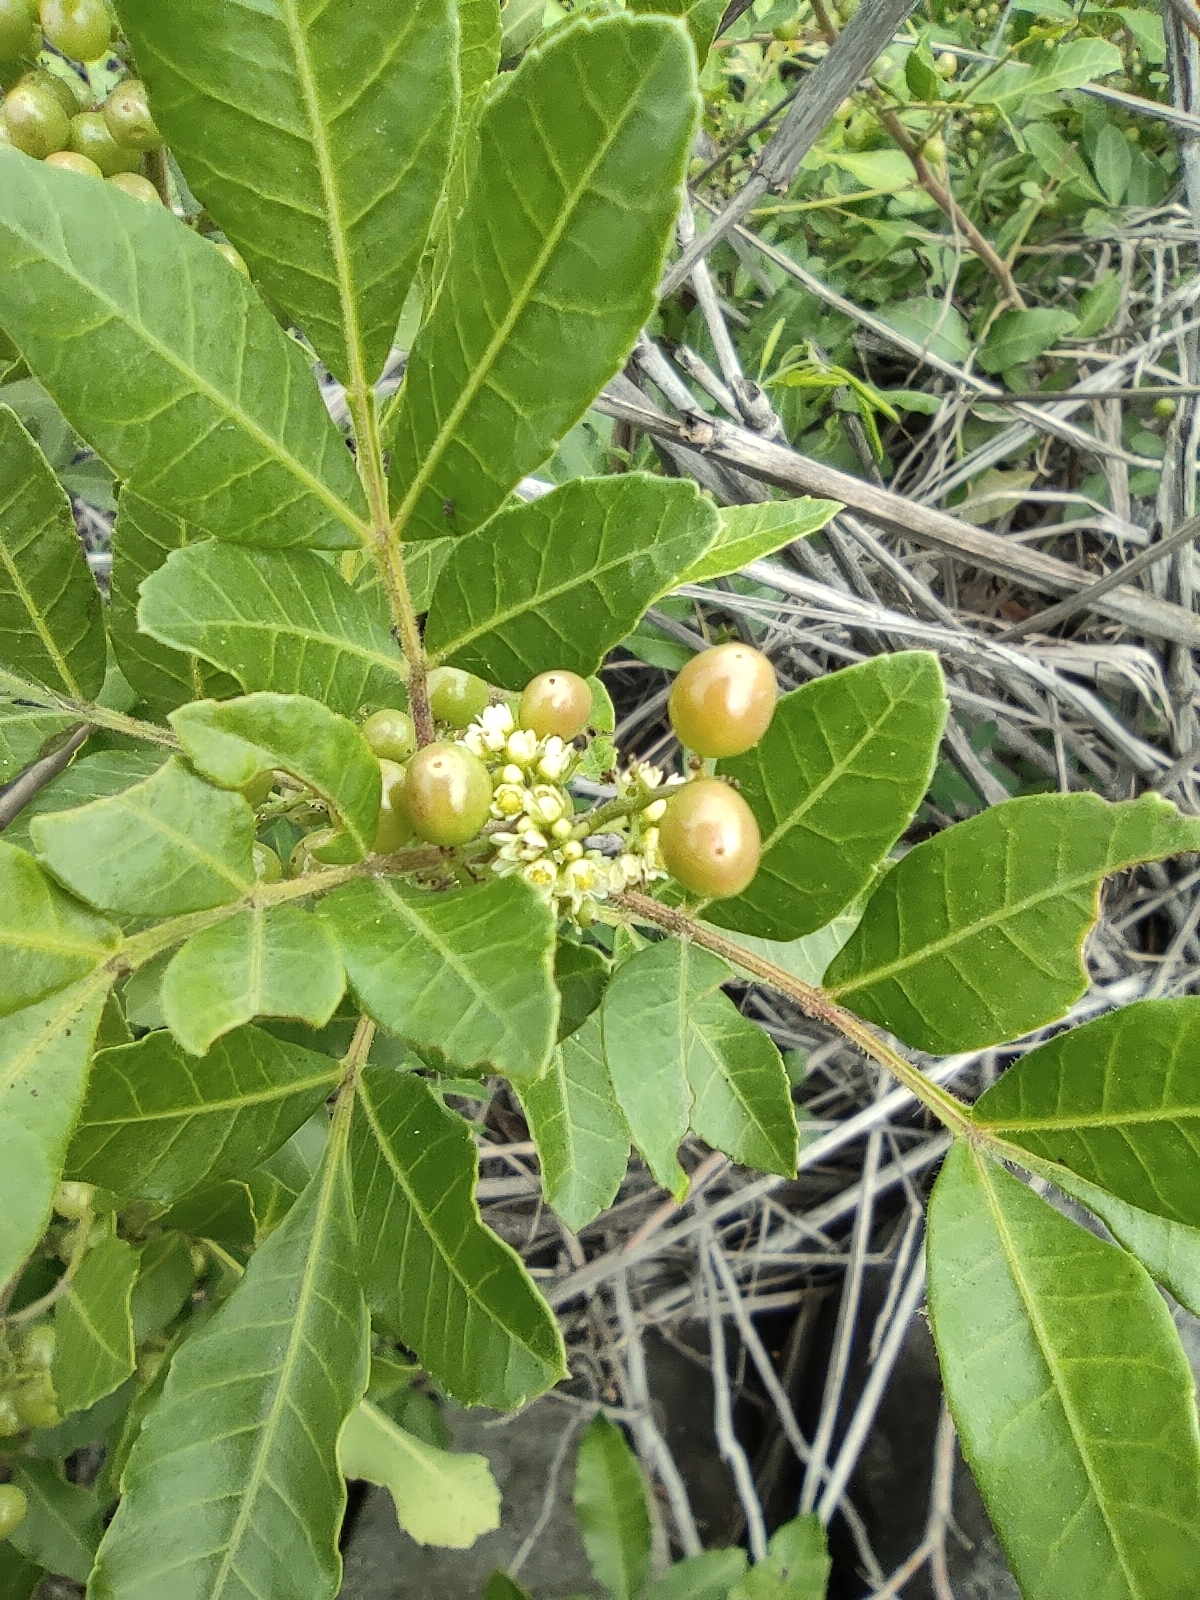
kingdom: Plantae
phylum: Tracheophyta
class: Magnoliopsida
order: Sapindales
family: Anacardiaceae
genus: Schinus
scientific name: Schinus terebinthifolia
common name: Brazilian peppertree
